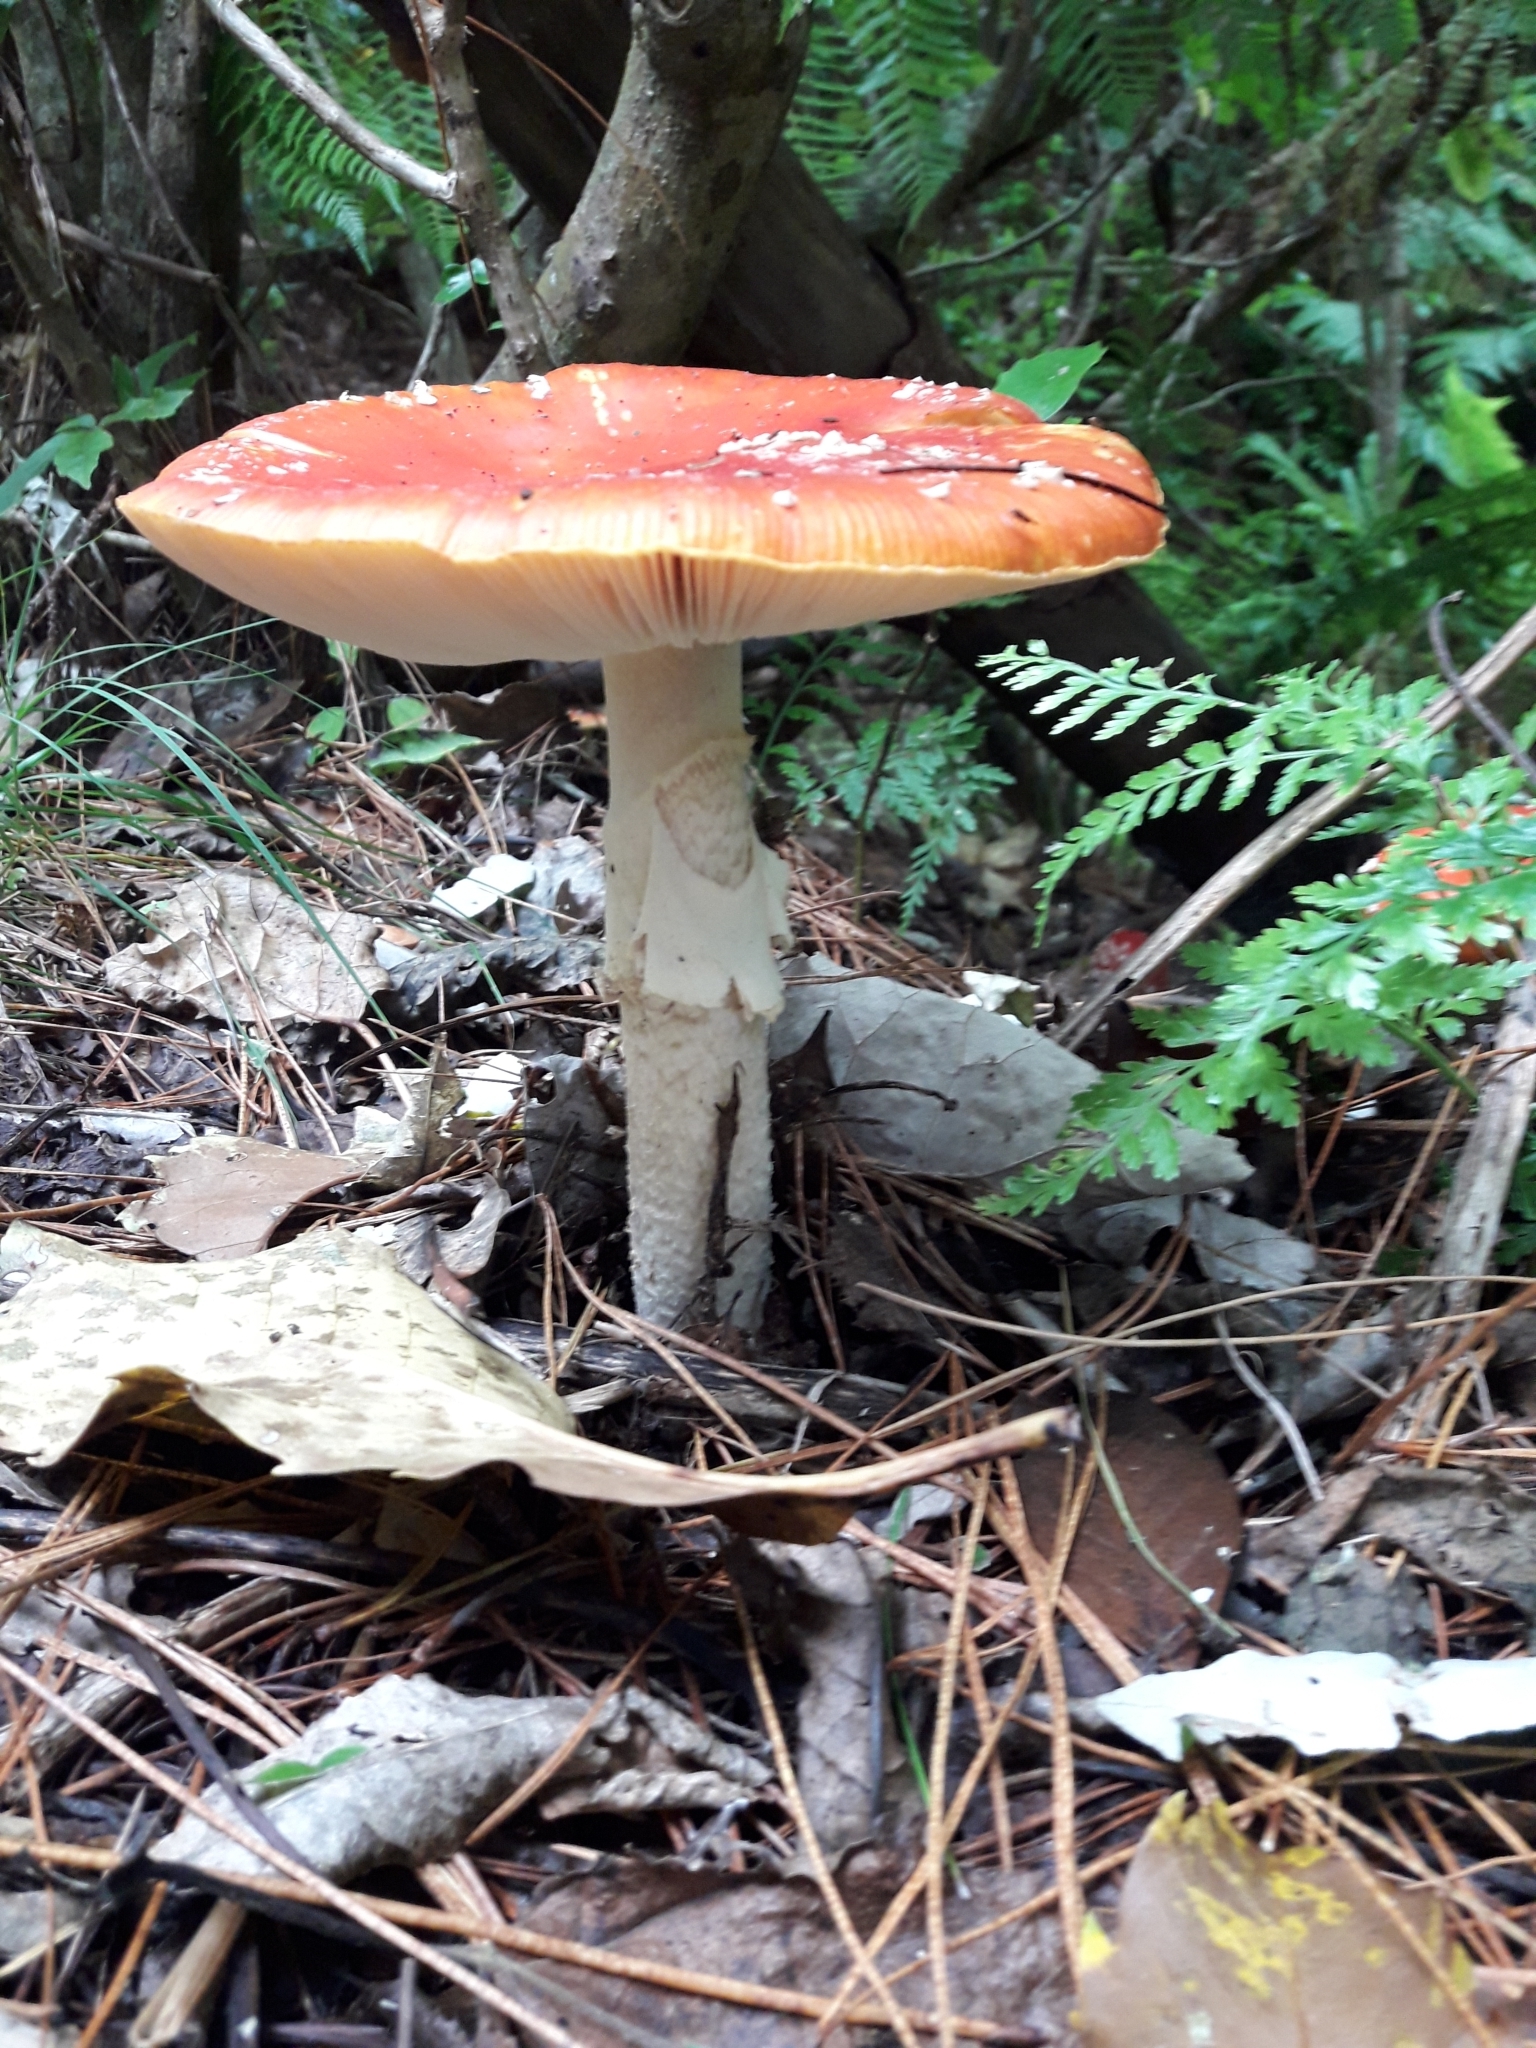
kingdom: Fungi
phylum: Basidiomycota
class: Agaricomycetes
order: Agaricales
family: Amanitaceae
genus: Amanita
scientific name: Amanita muscaria
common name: Fly agaric
